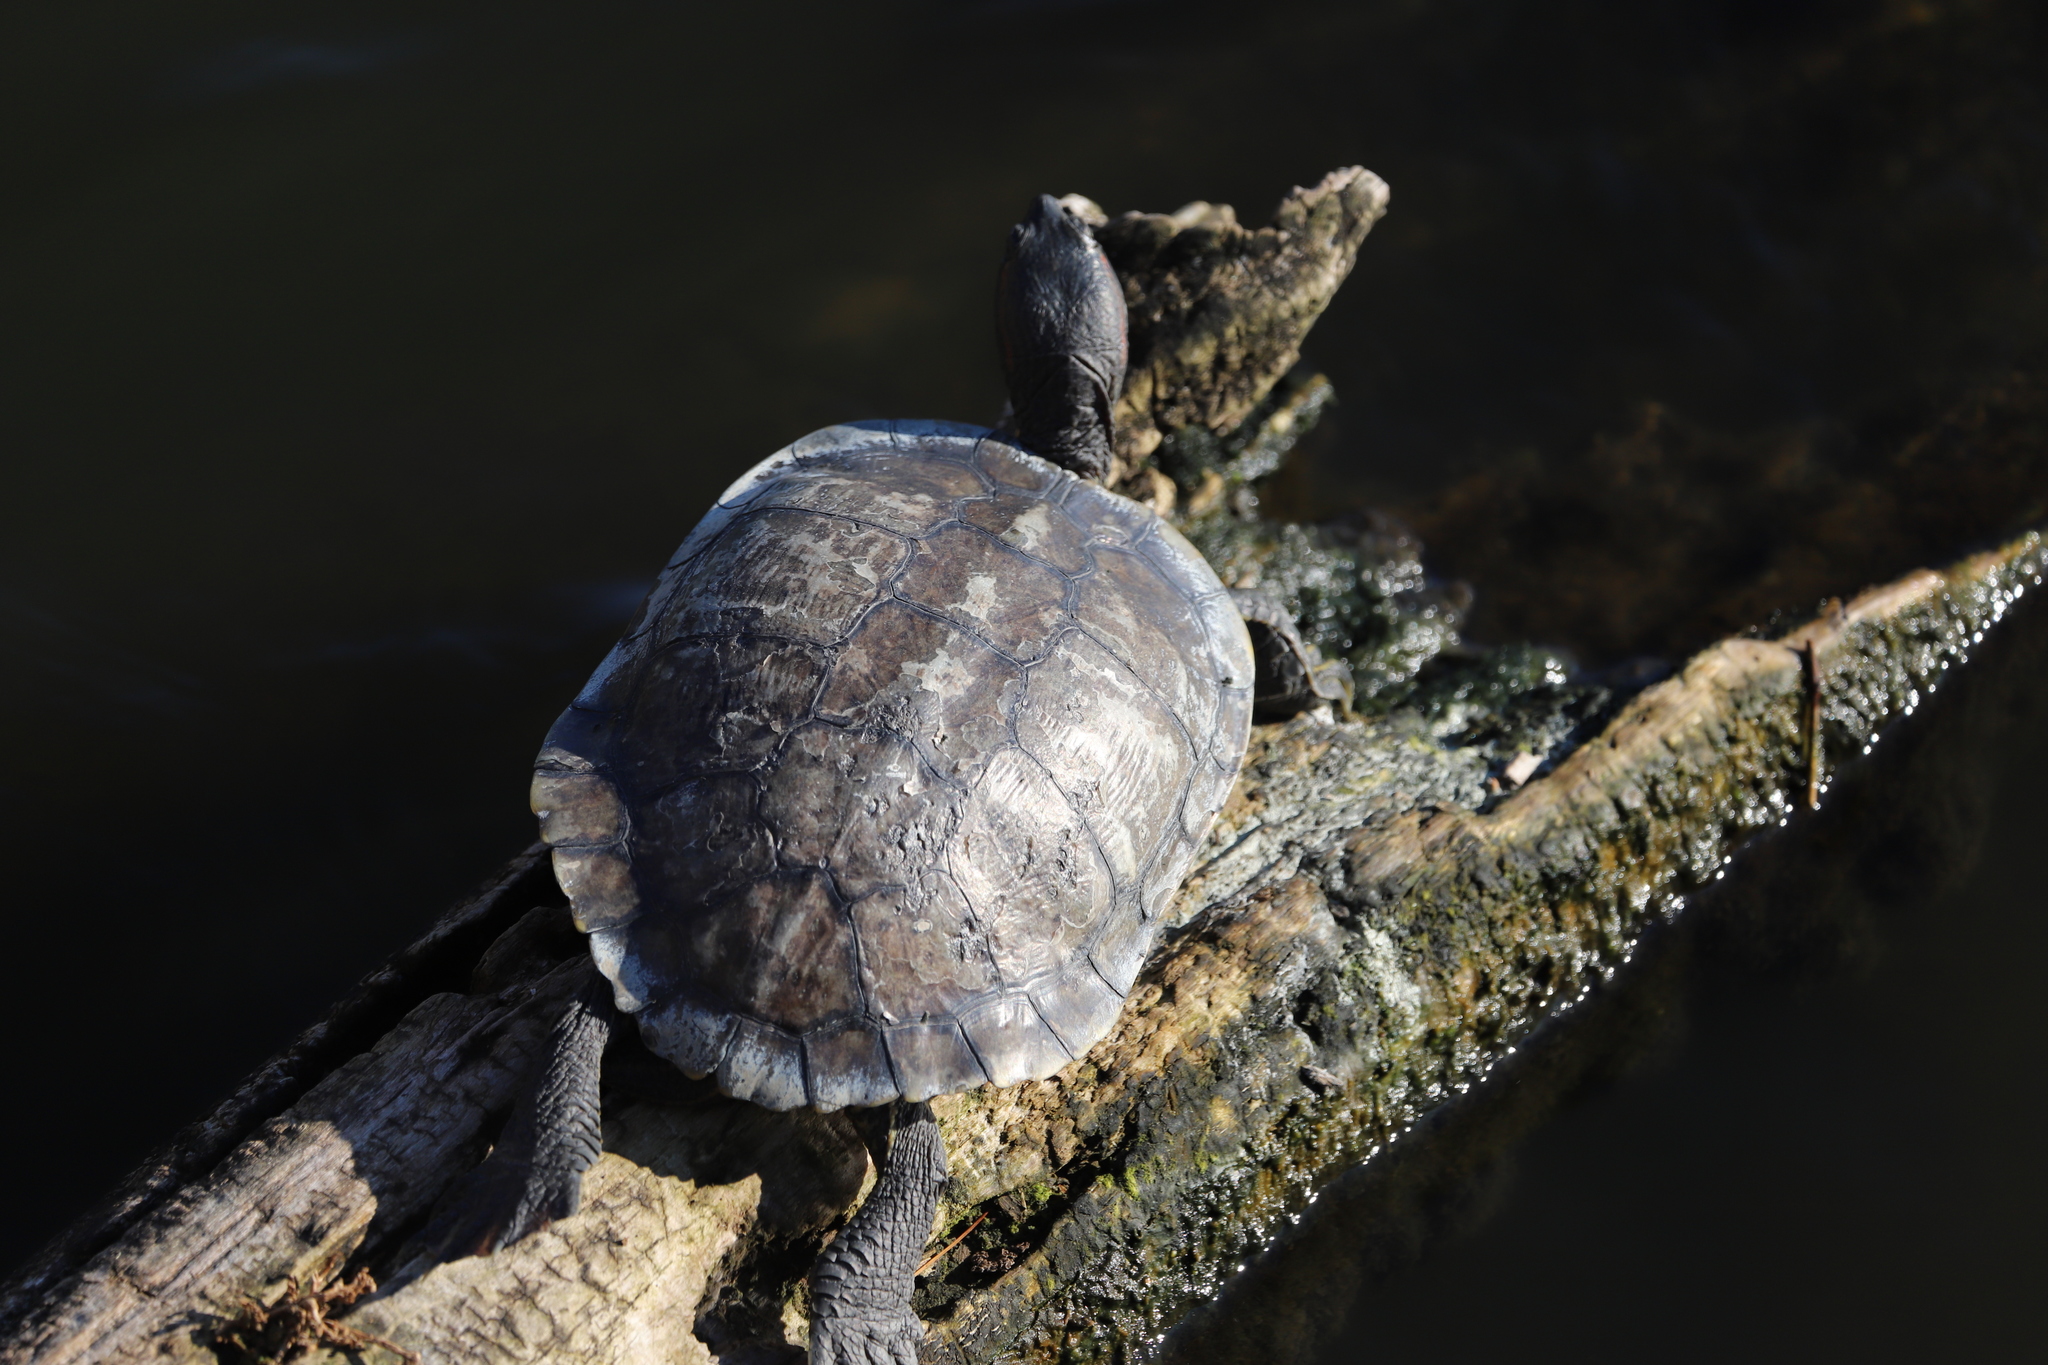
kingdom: Animalia
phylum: Chordata
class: Testudines
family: Emydidae
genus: Trachemys
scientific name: Trachemys scripta
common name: Slider
